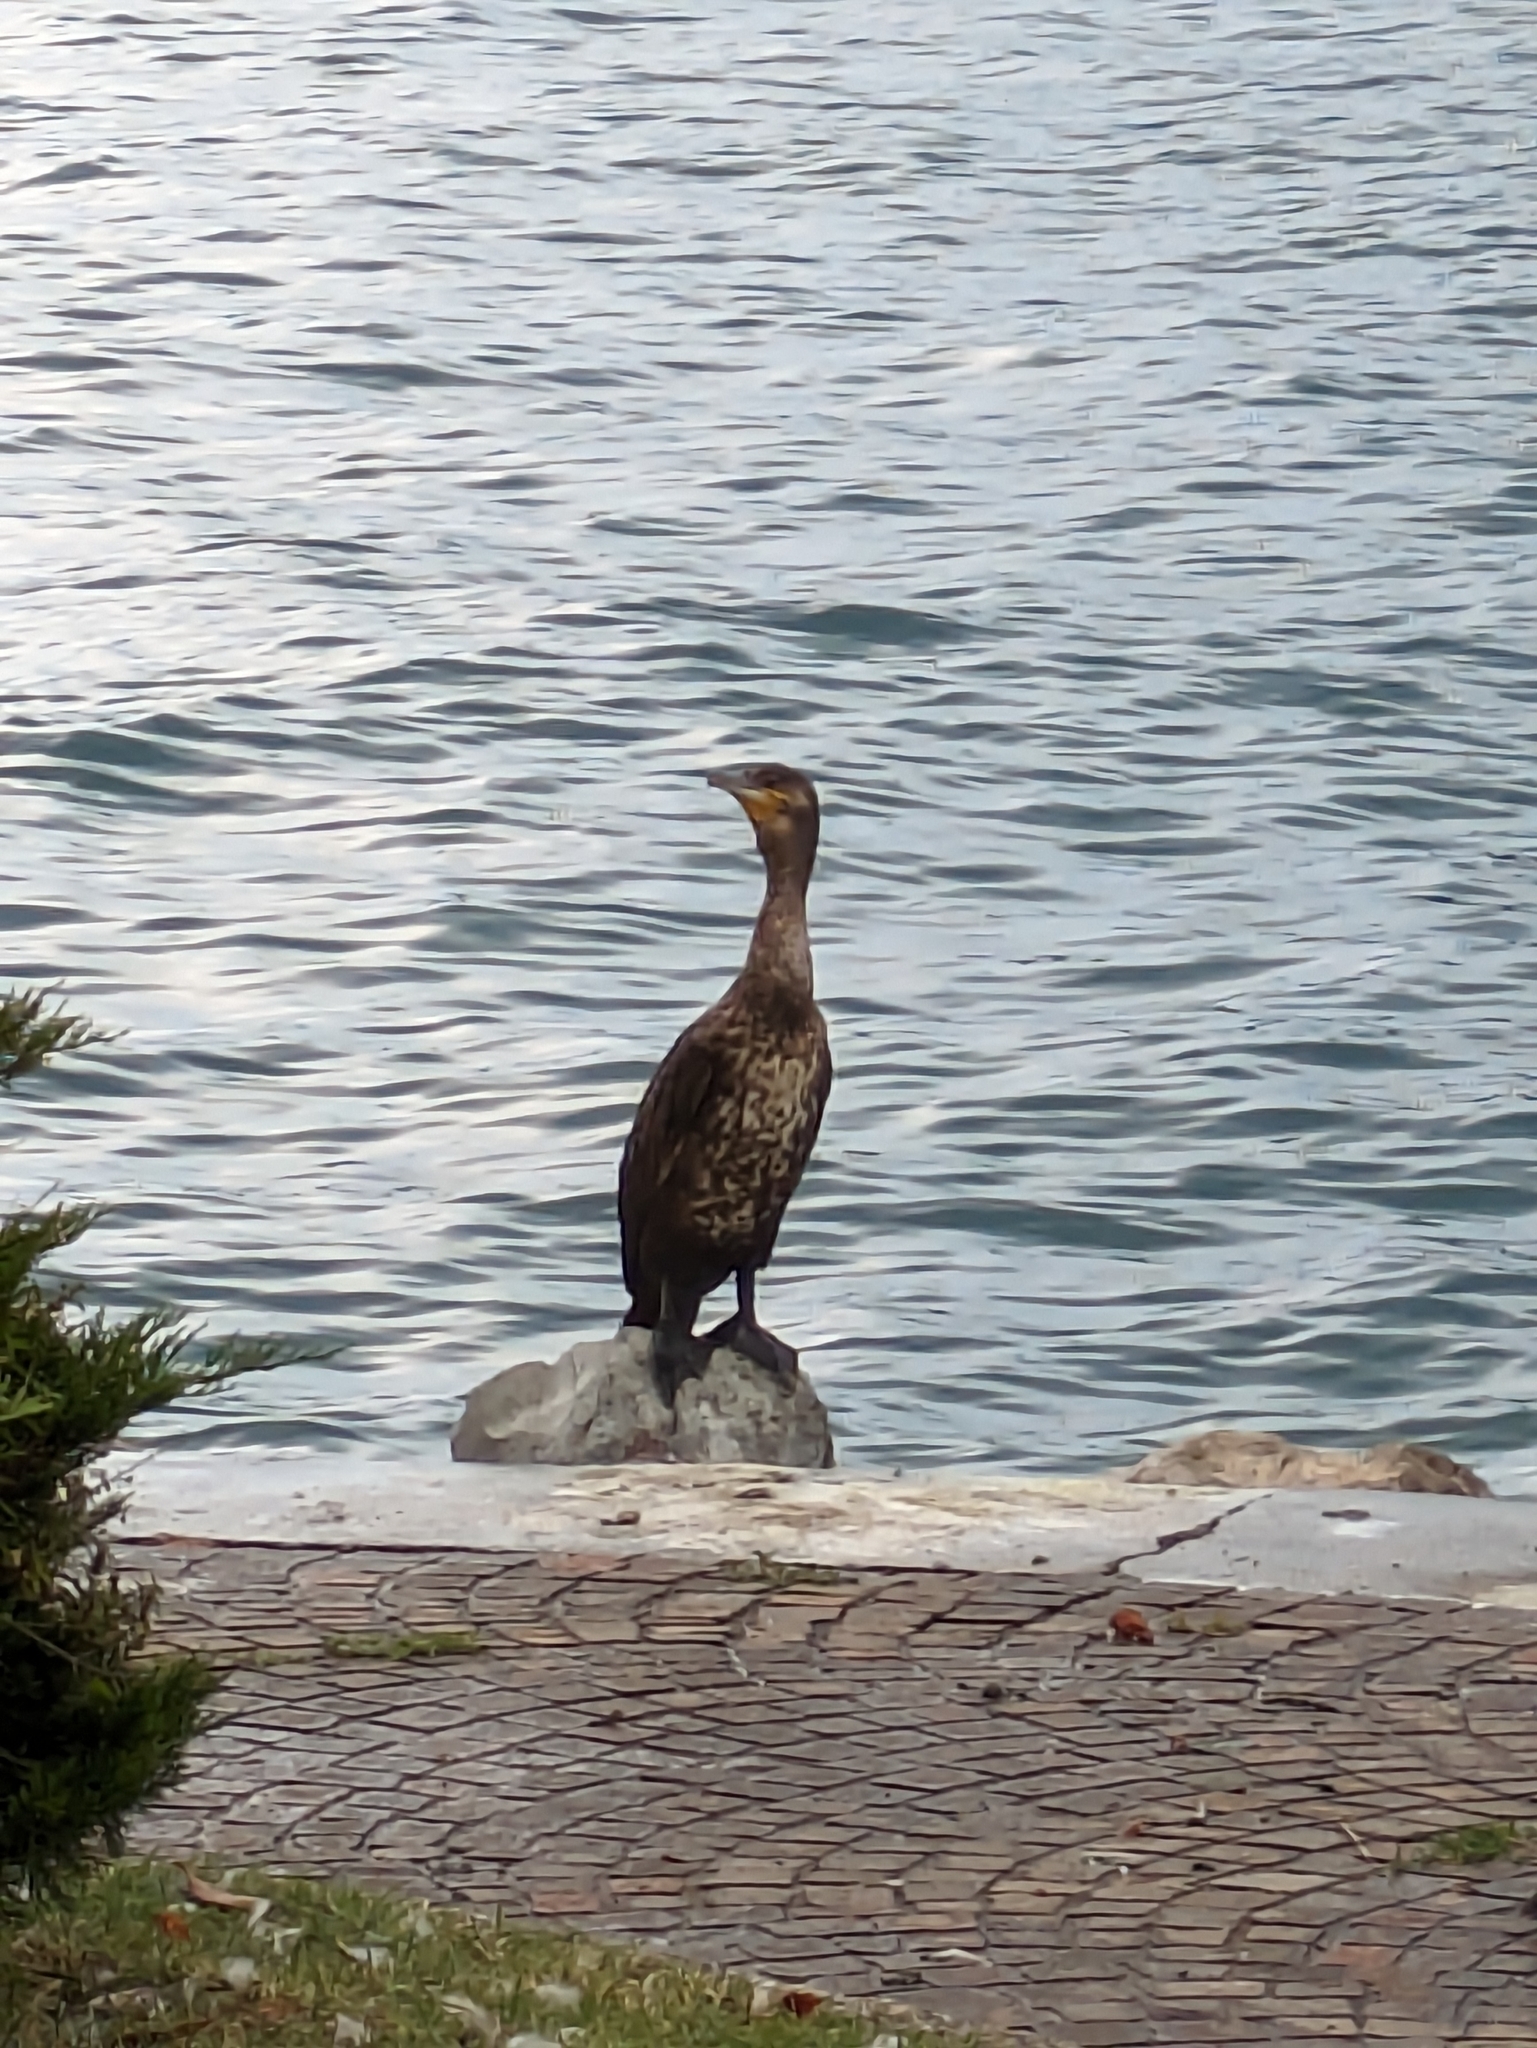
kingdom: Animalia
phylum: Chordata
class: Aves
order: Suliformes
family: Phalacrocoracidae
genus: Phalacrocorax
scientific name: Phalacrocorax carbo
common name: Great cormorant
